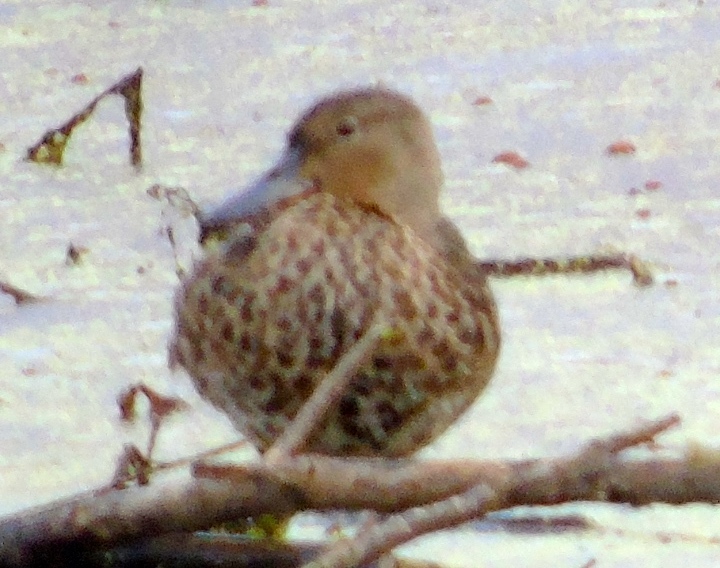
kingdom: Animalia
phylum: Chordata
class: Aves
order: Anseriformes
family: Anatidae
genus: Spatula
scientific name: Spatula discors
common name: Blue-winged teal
